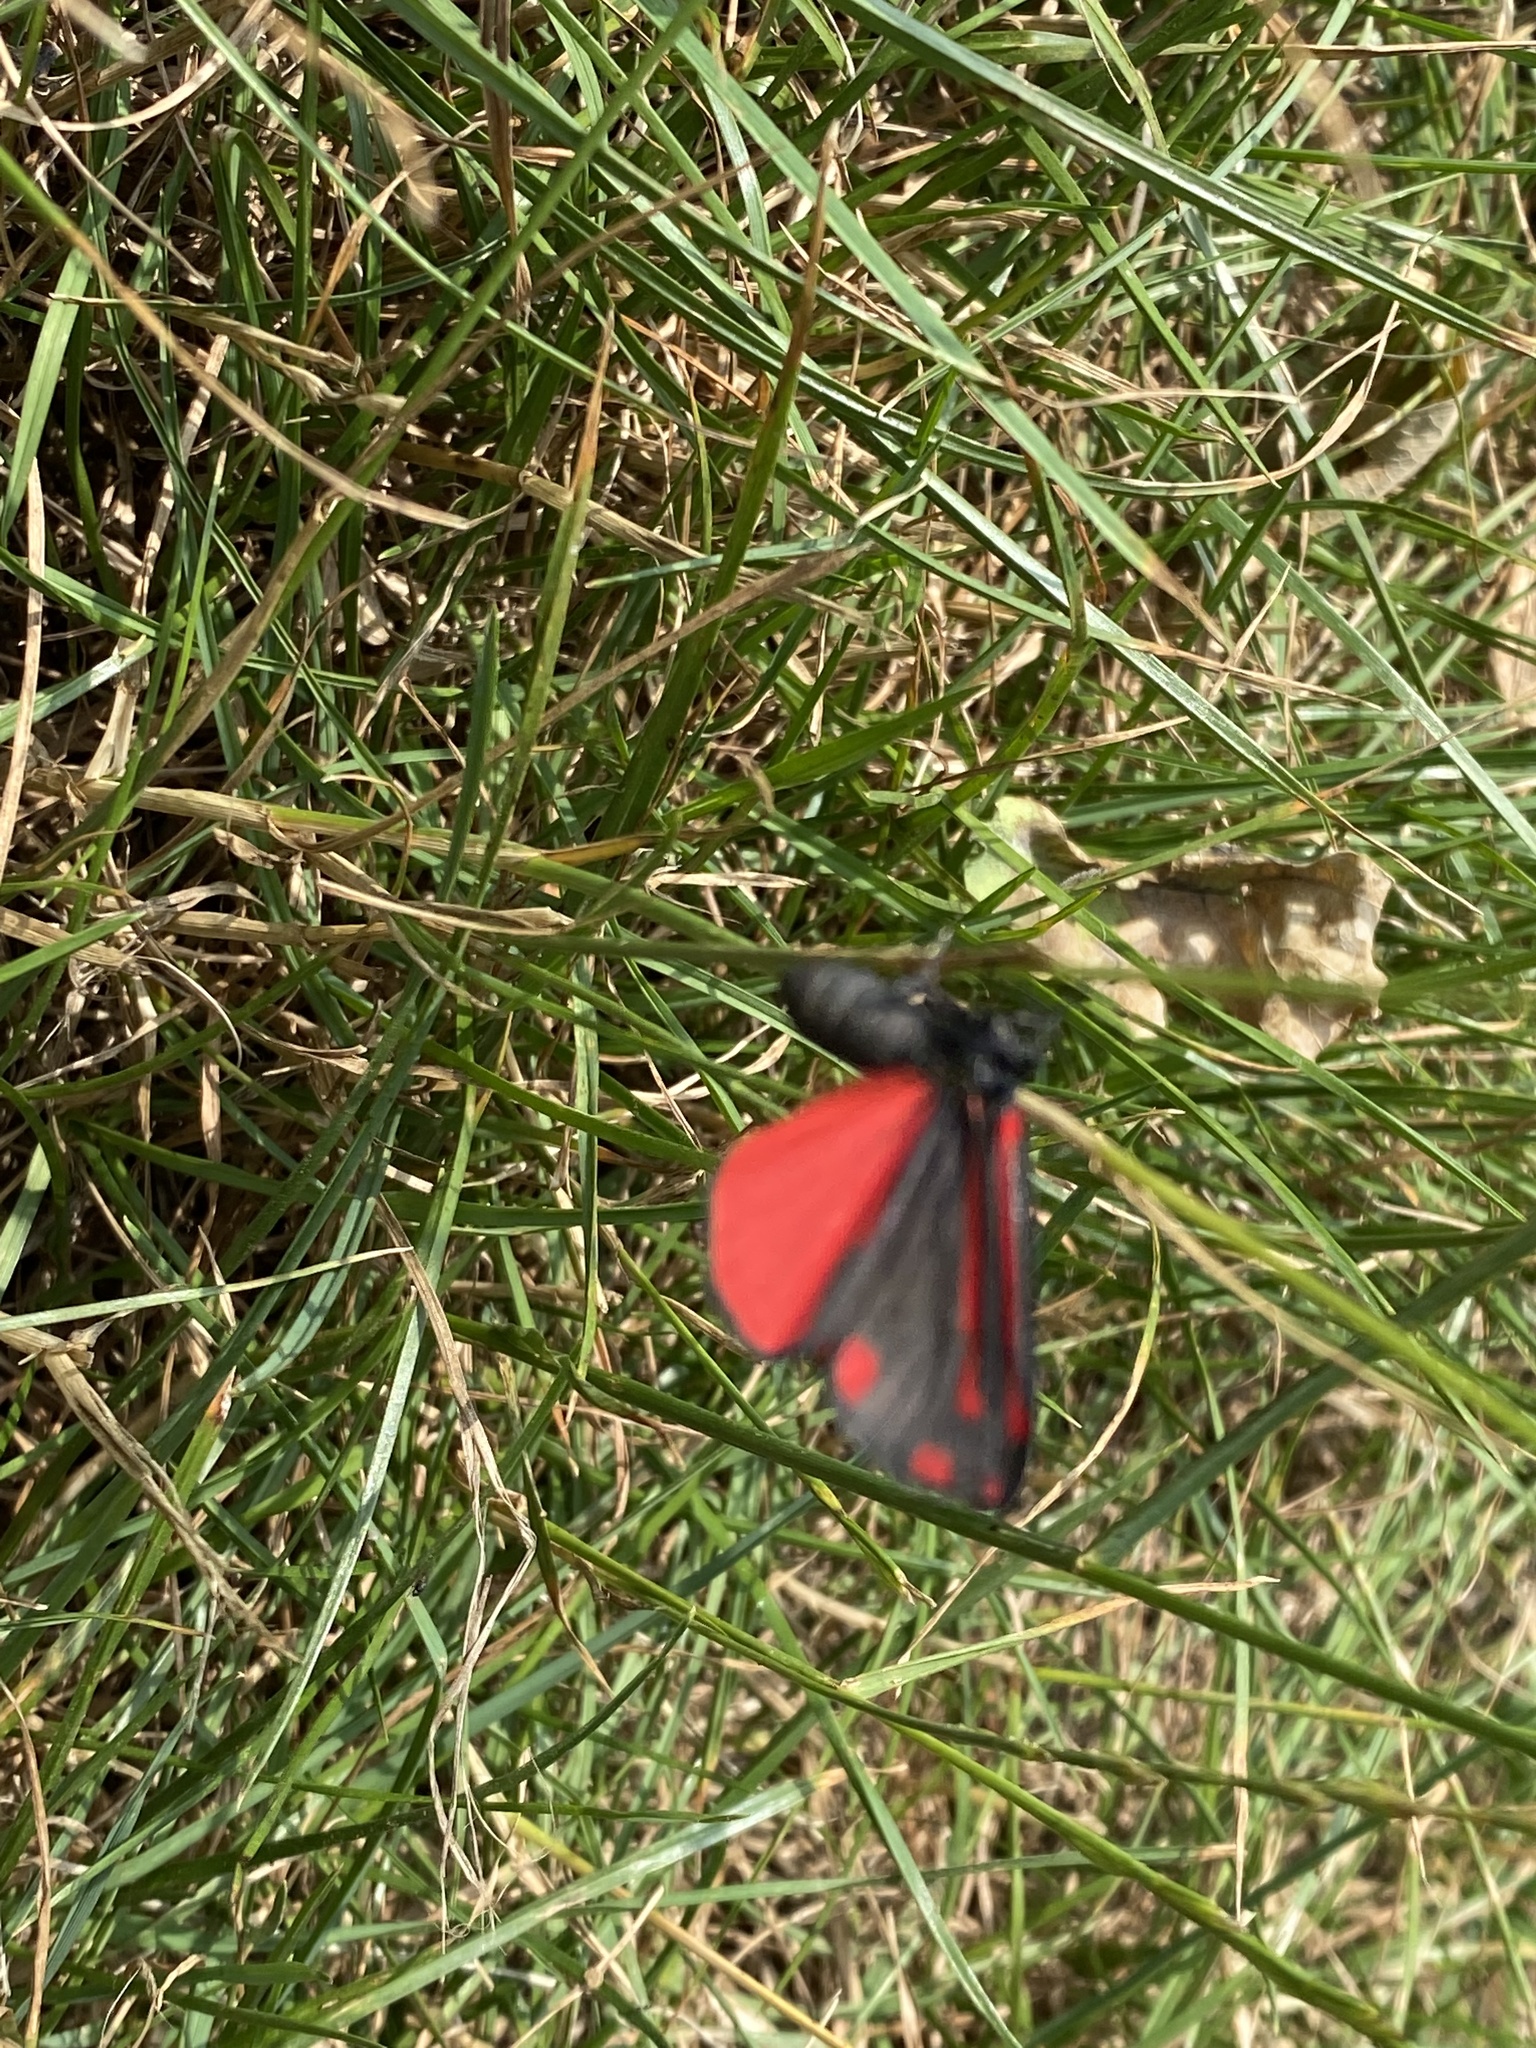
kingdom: Animalia
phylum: Arthropoda
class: Insecta
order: Lepidoptera
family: Erebidae
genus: Tyria
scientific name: Tyria jacobaeae
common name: Cinnabar
